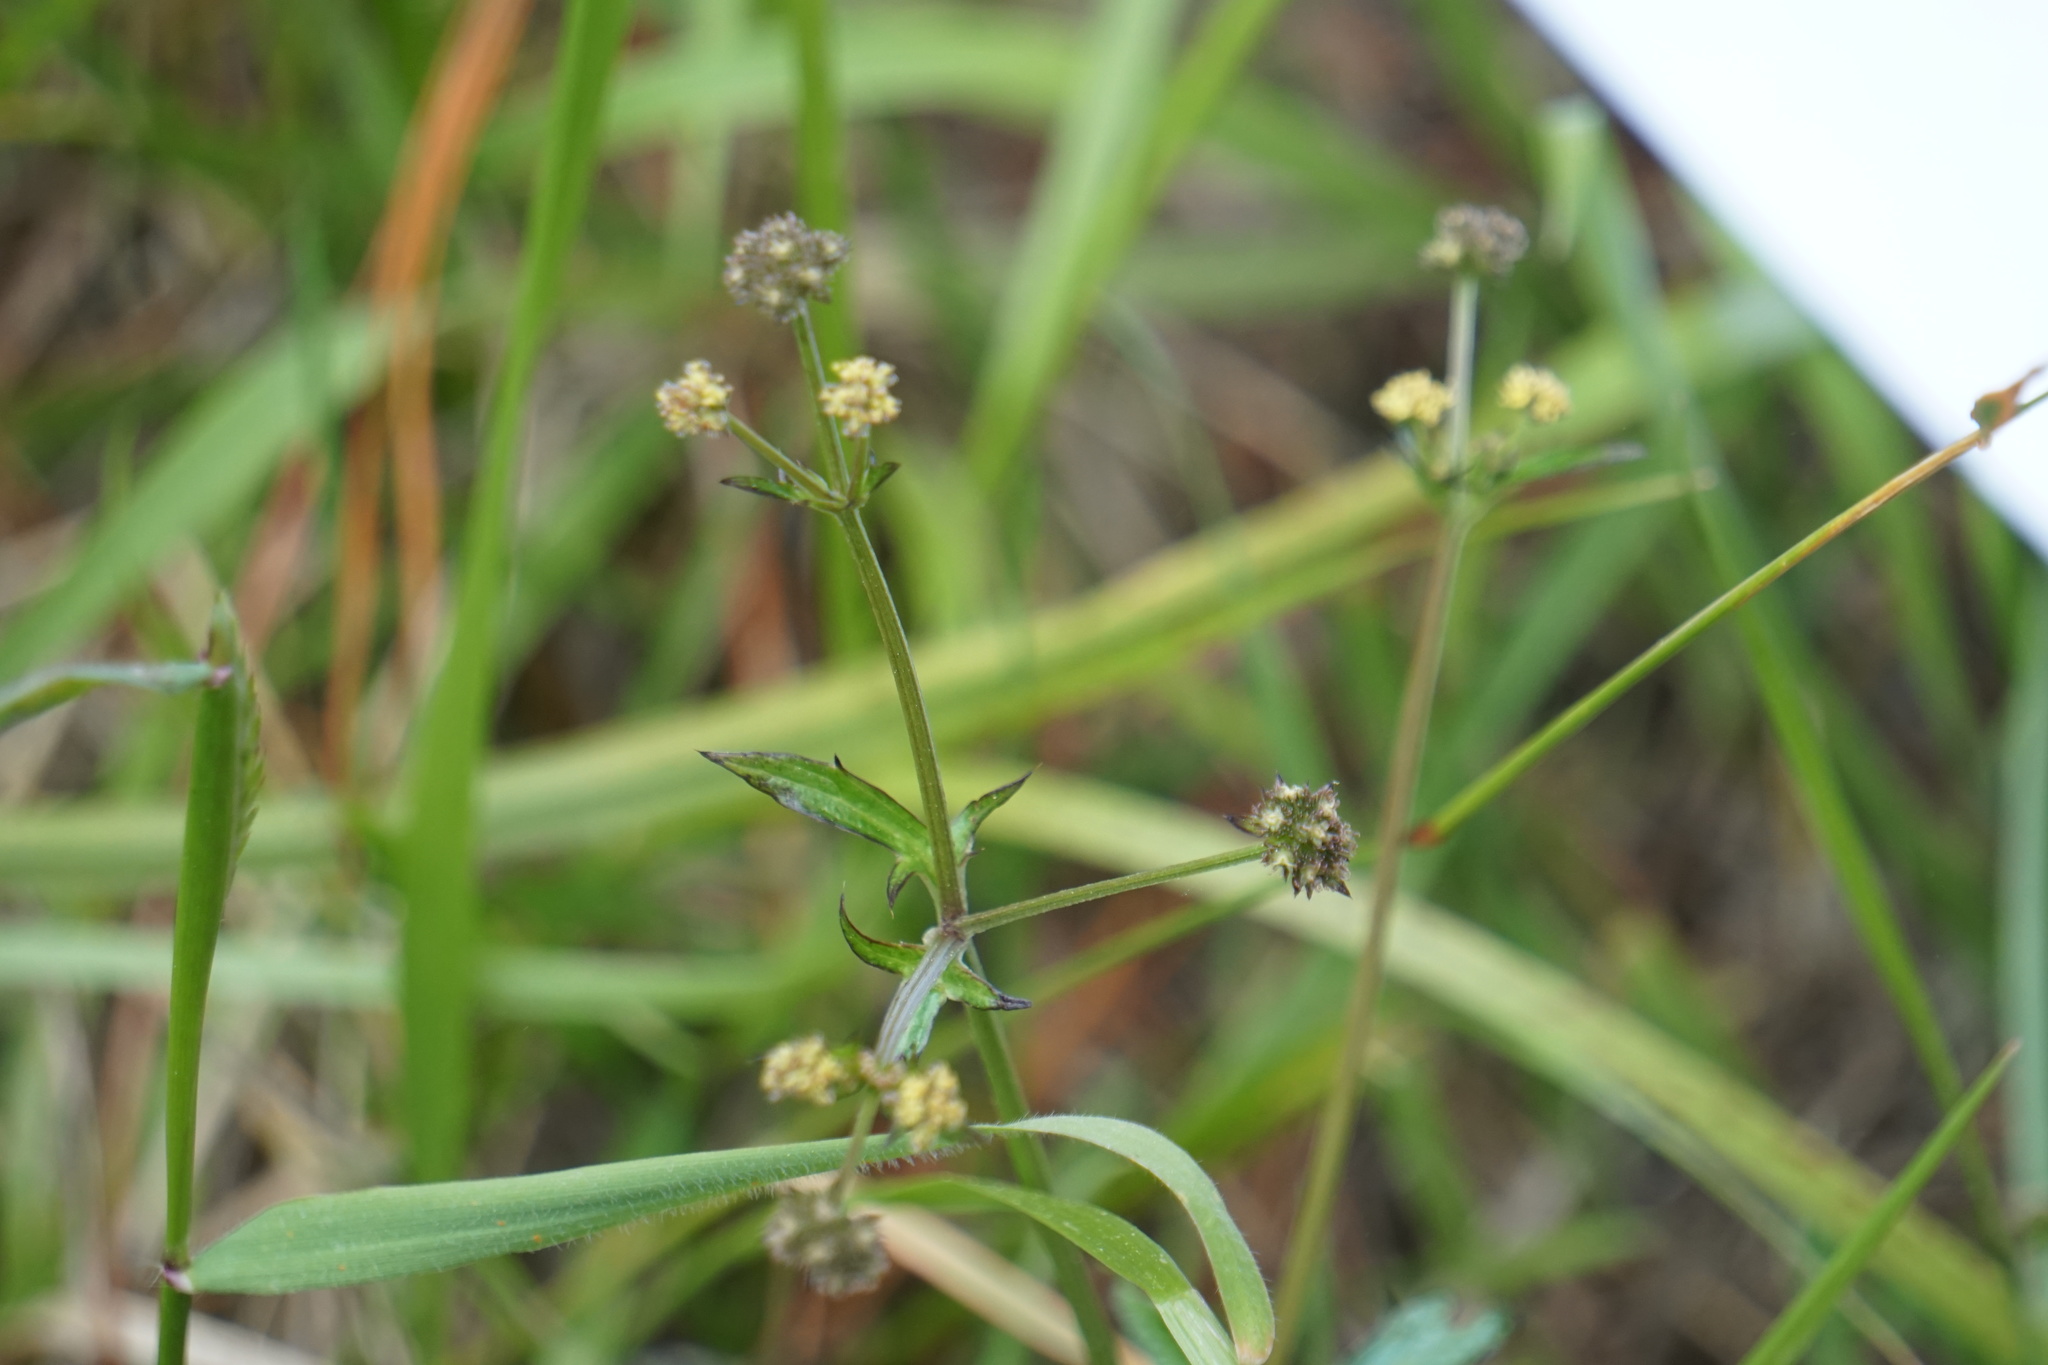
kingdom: Plantae
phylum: Tracheophyta
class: Magnoliopsida
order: Apiales
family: Apiaceae
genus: Sanicula
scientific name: Sanicula crassicaulis
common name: Western snakeroot
